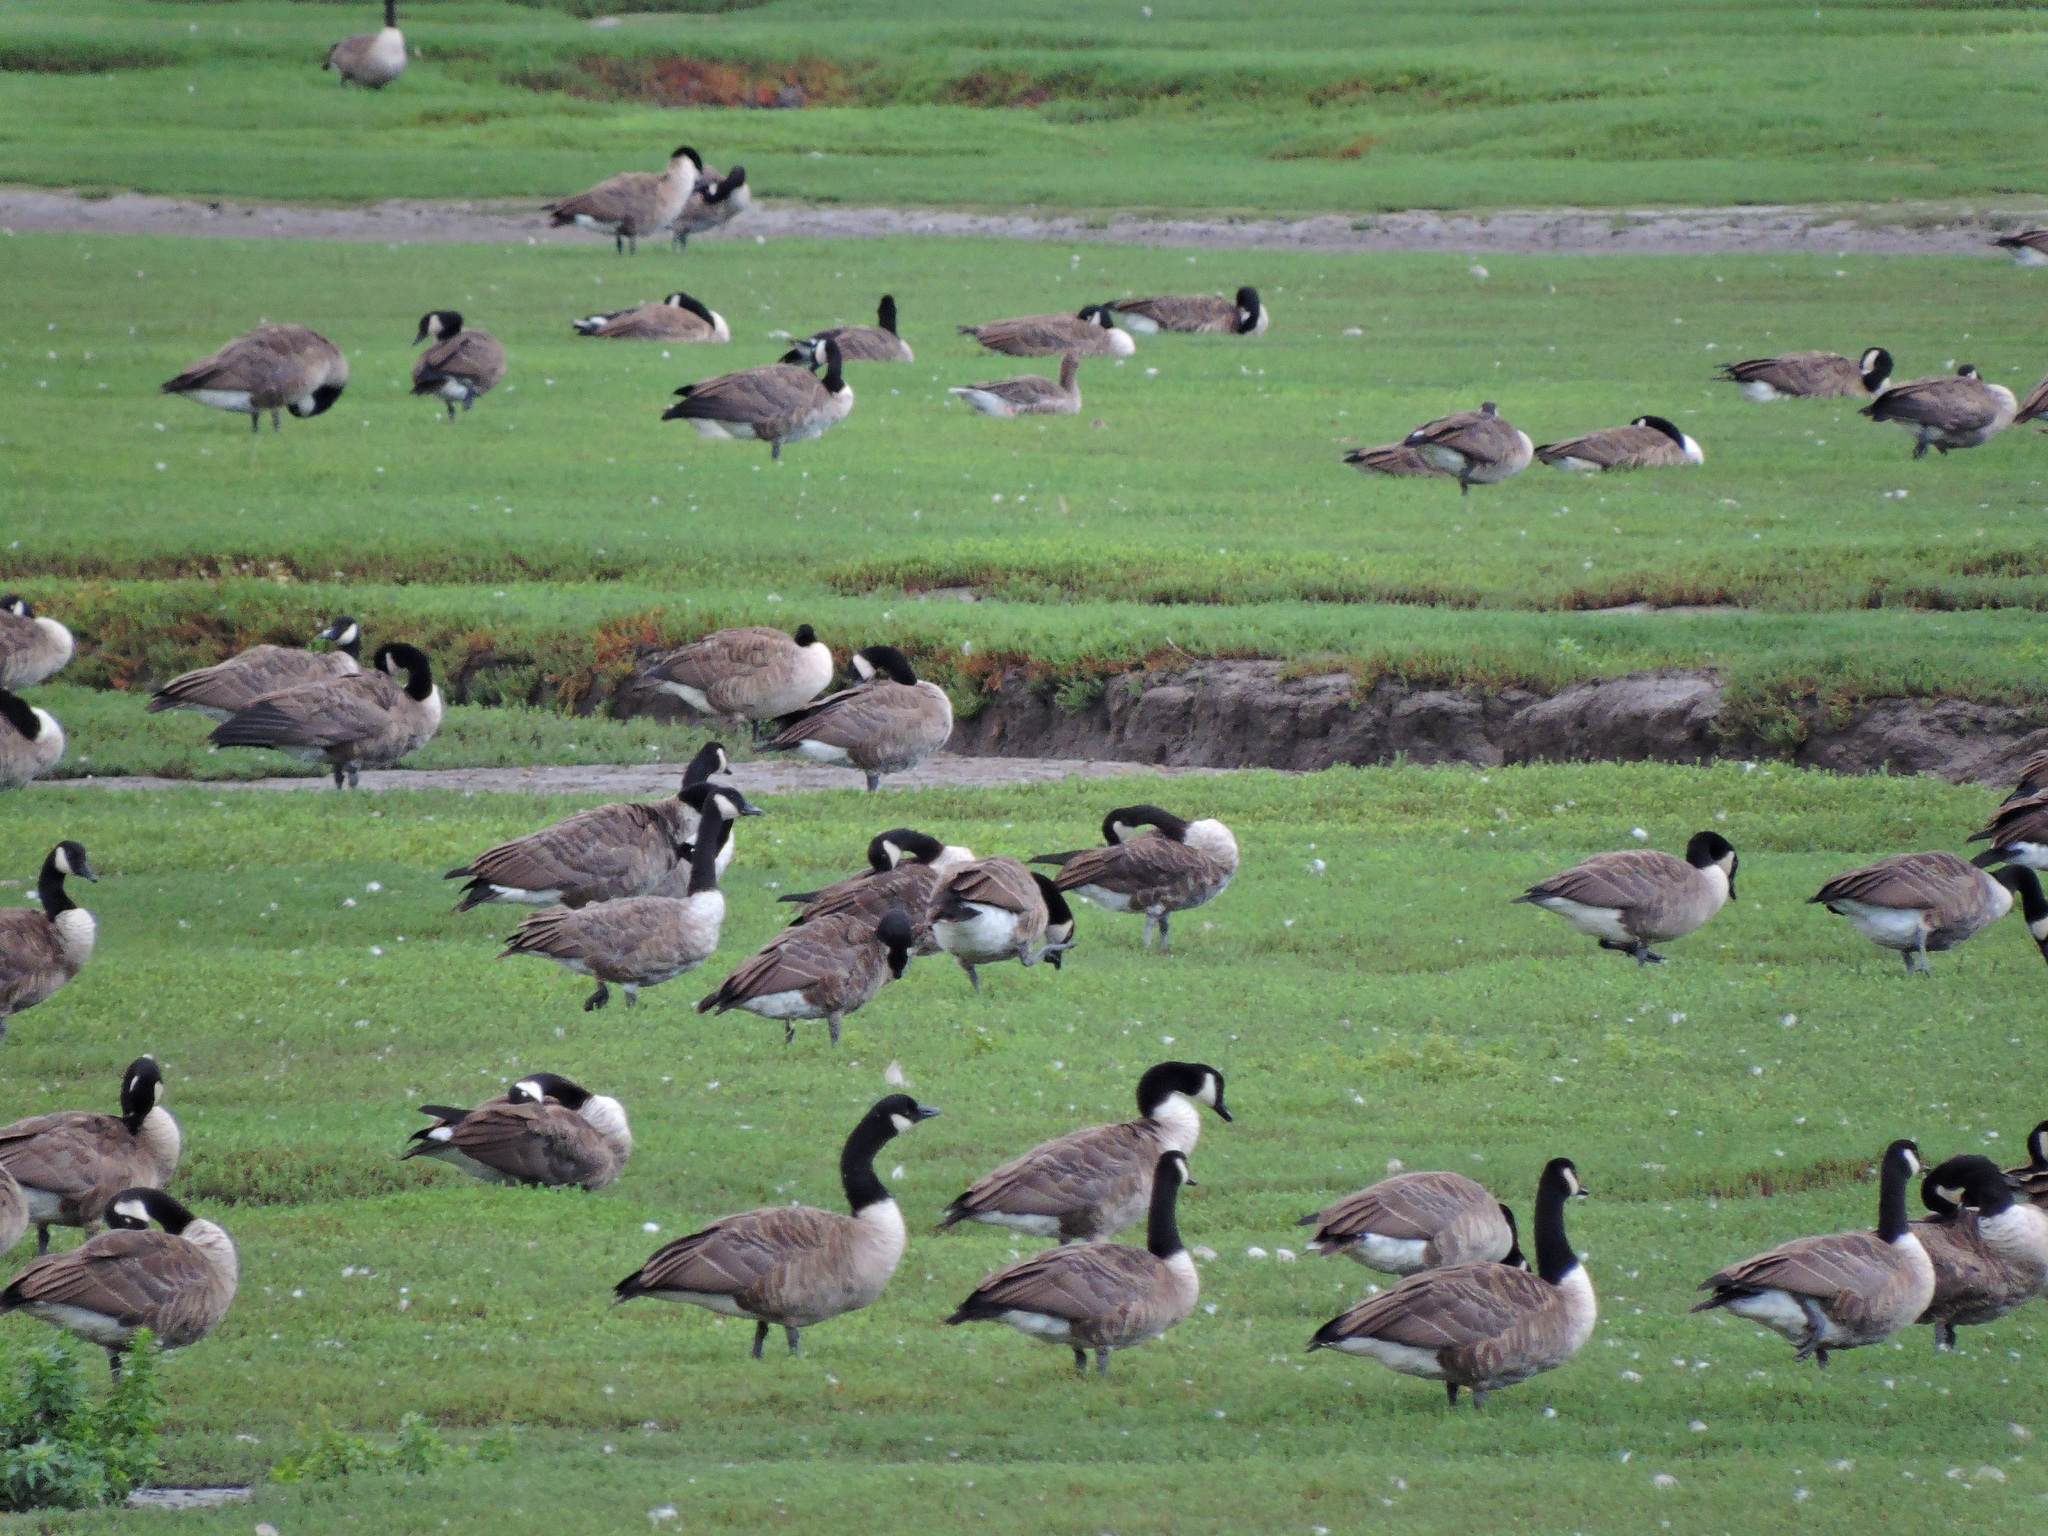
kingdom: Animalia
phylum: Chordata
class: Aves
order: Anseriformes
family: Anatidae
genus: Branta
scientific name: Branta canadensis
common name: Canada goose
